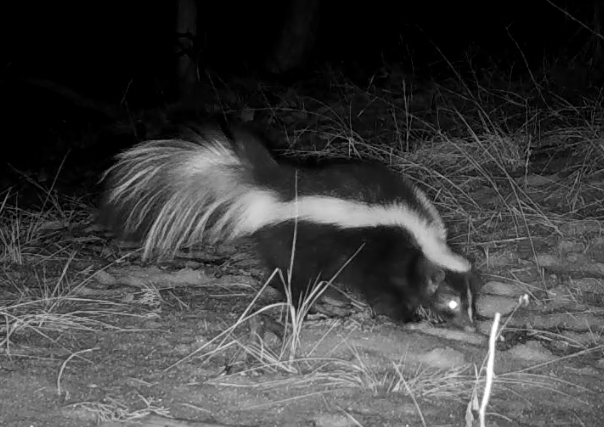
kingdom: Animalia
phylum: Chordata
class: Mammalia
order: Carnivora
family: Mephitidae
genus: Mephitis
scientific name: Mephitis mephitis
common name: Striped skunk
